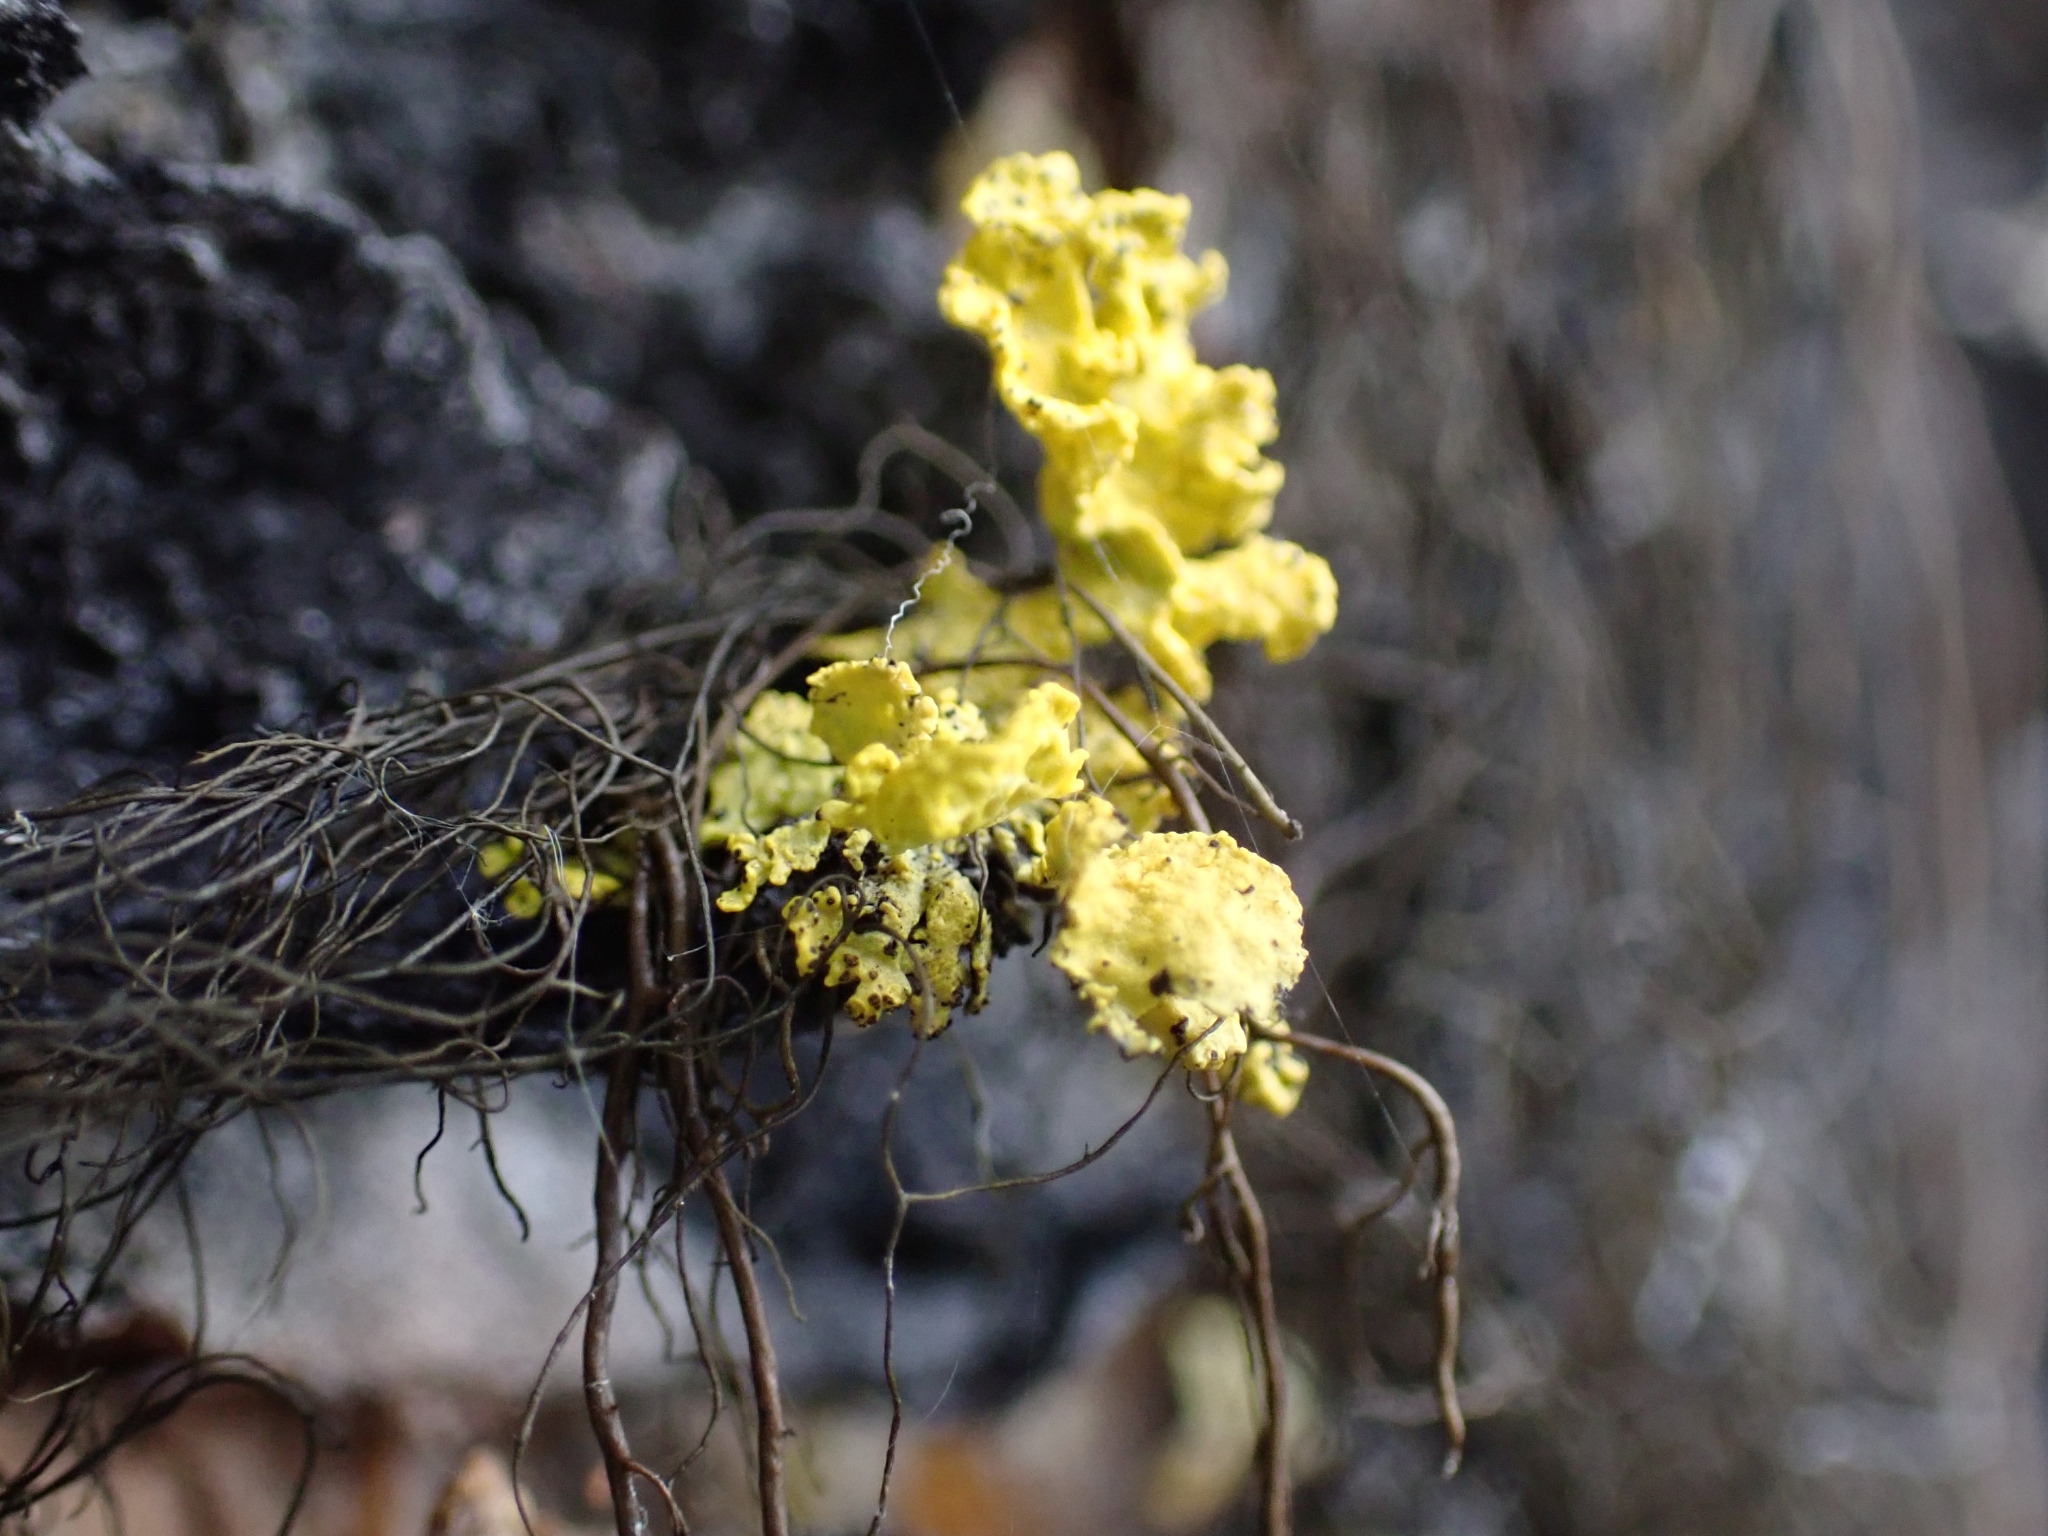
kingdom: Fungi
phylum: Ascomycota
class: Lecanoromycetes
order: Lecanorales
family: Parmeliaceae
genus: Vulpicida
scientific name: Vulpicida canadensis
